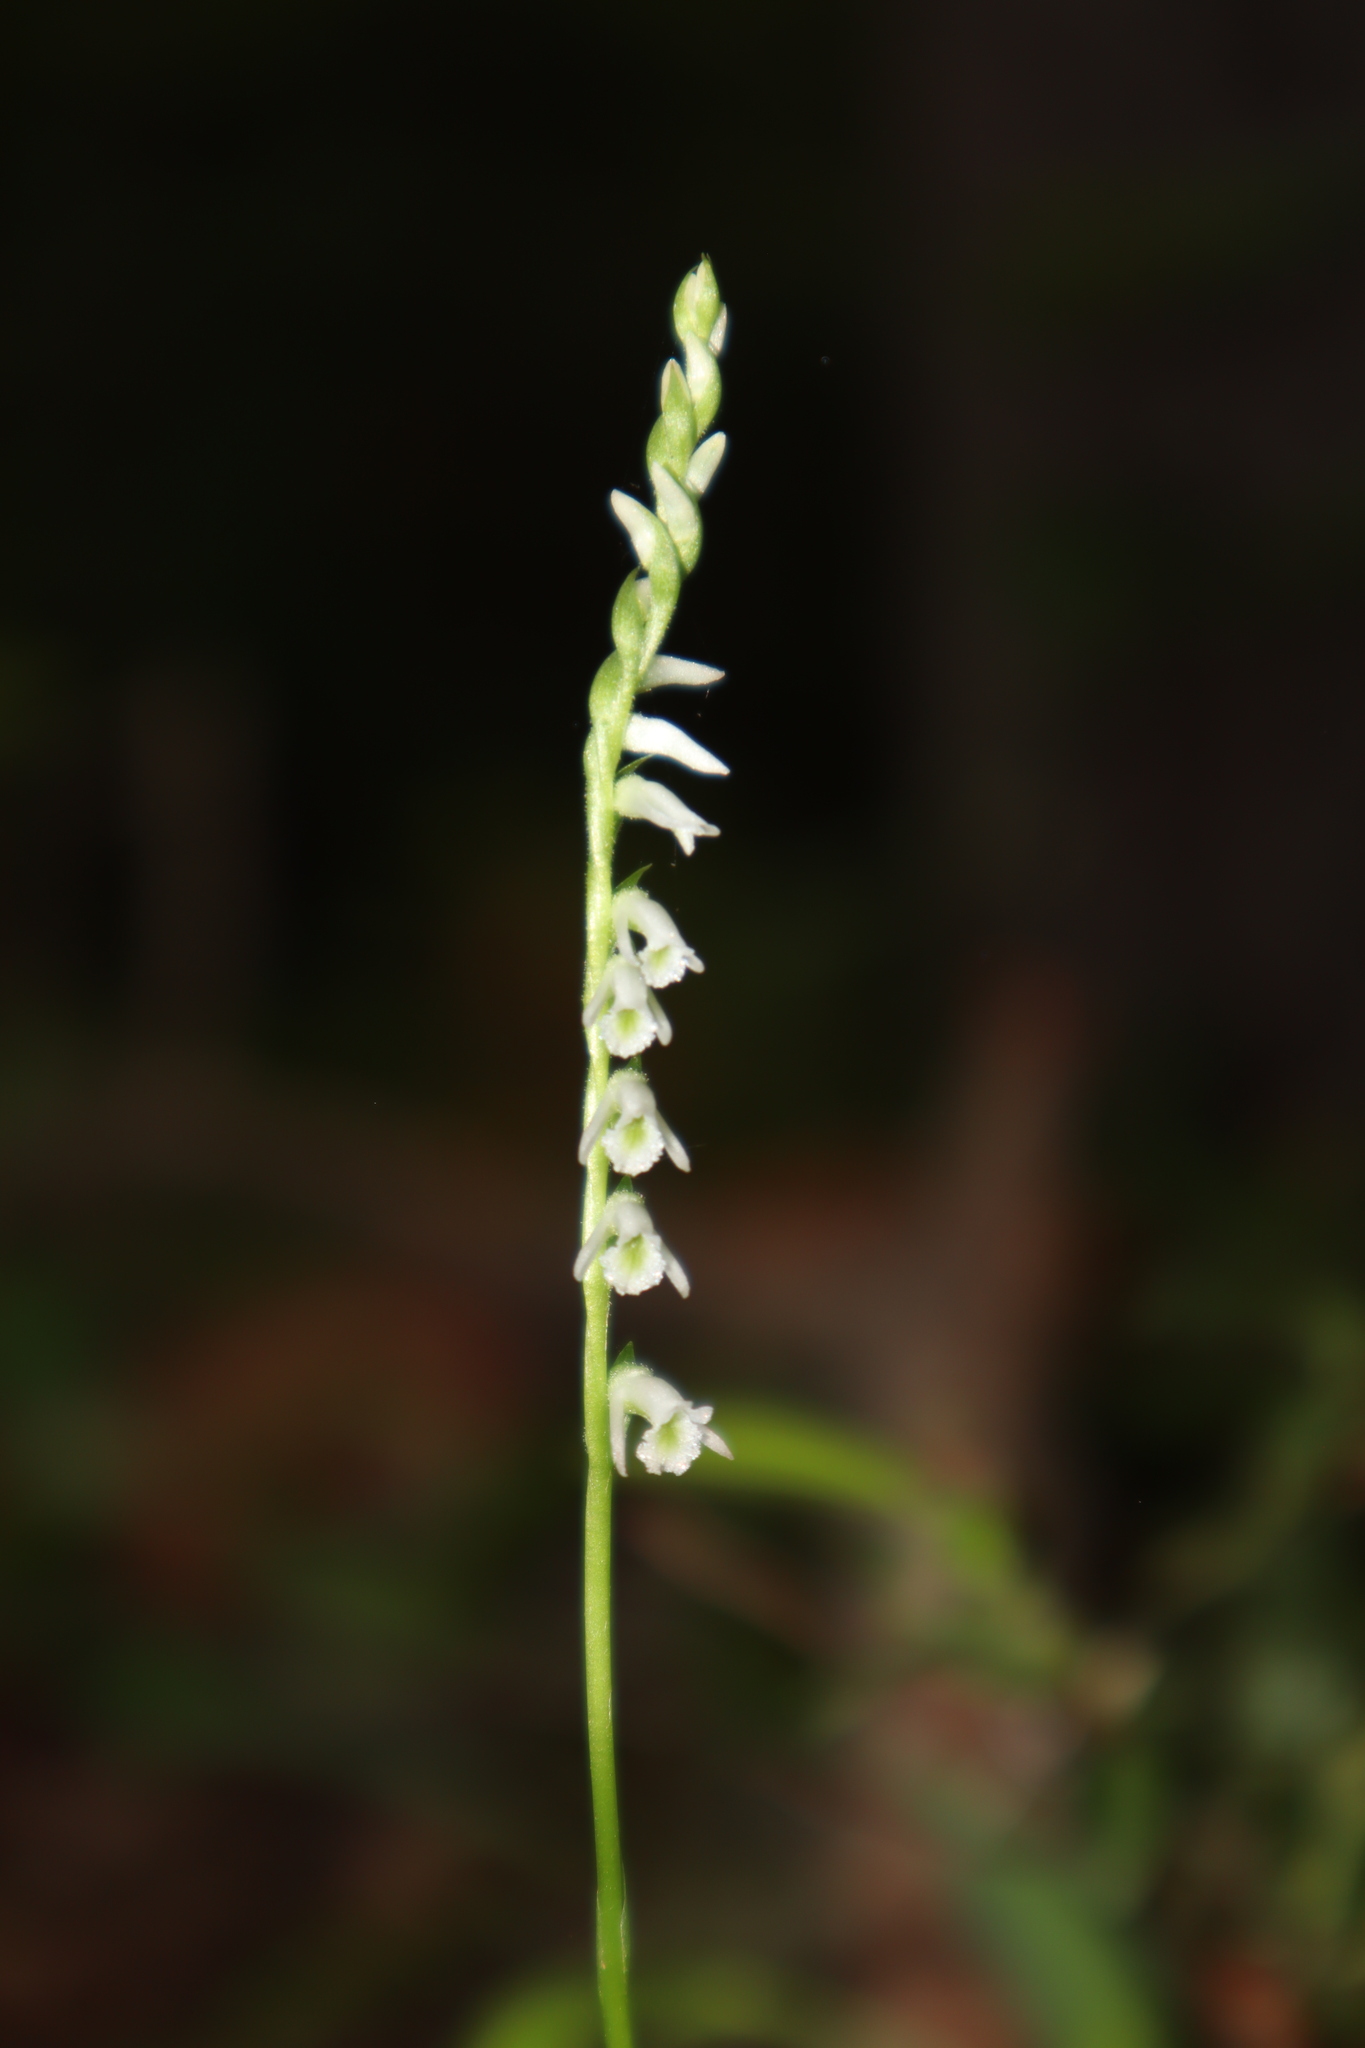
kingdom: Plantae
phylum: Tracheophyta
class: Liliopsida
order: Asparagales
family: Orchidaceae
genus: Spiranthes
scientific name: Spiranthes lacera
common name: Northern slender ladies'-tresses
